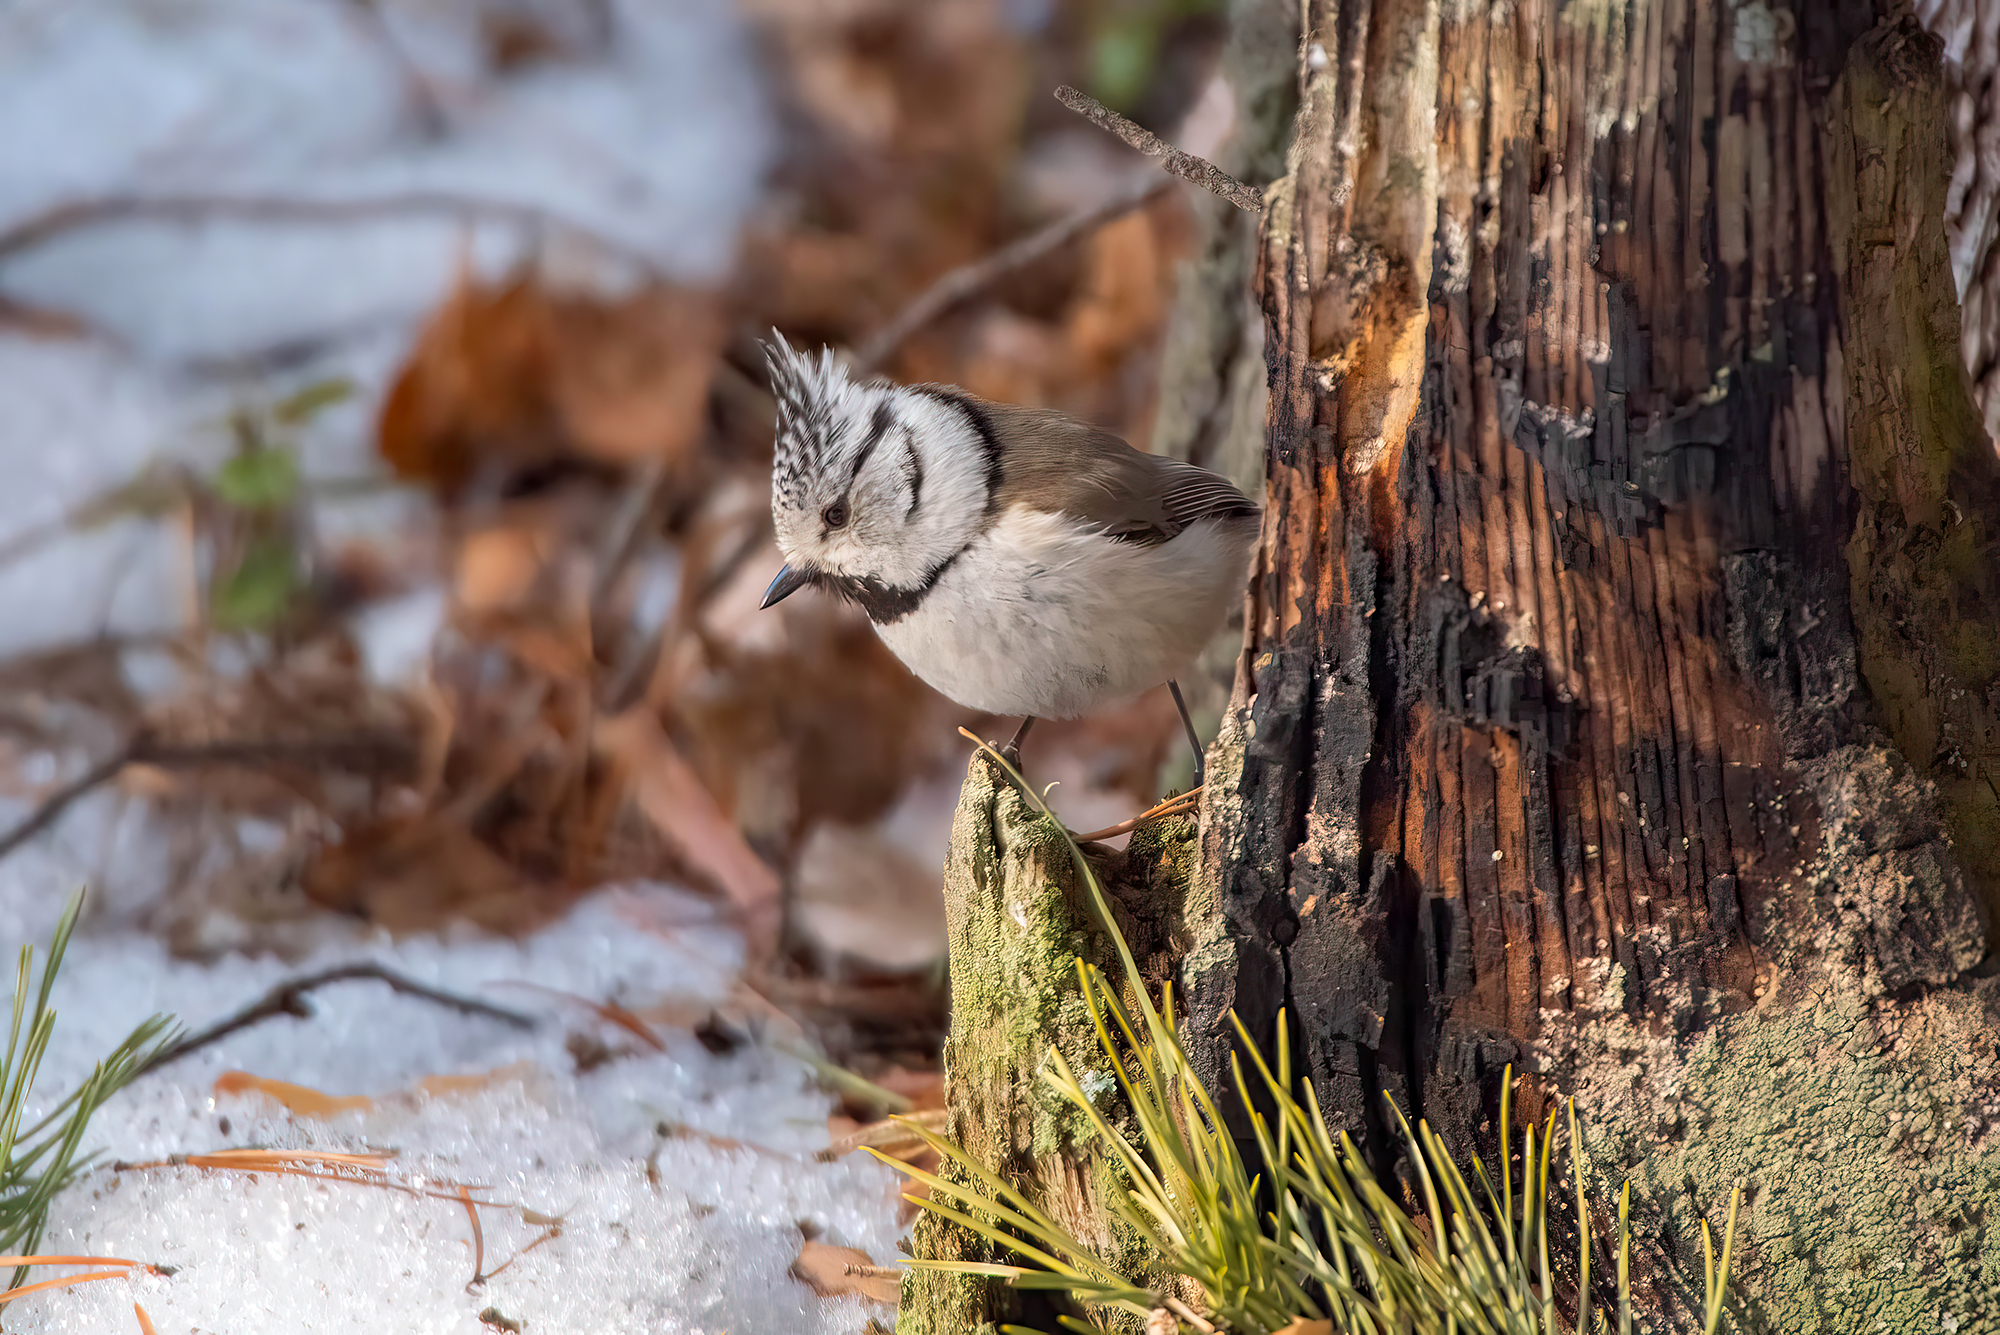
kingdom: Animalia
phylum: Chordata
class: Aves
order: Passeriformes
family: Paridae
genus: Lophophanes
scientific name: Lophophanes cristatus
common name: European crested tit
